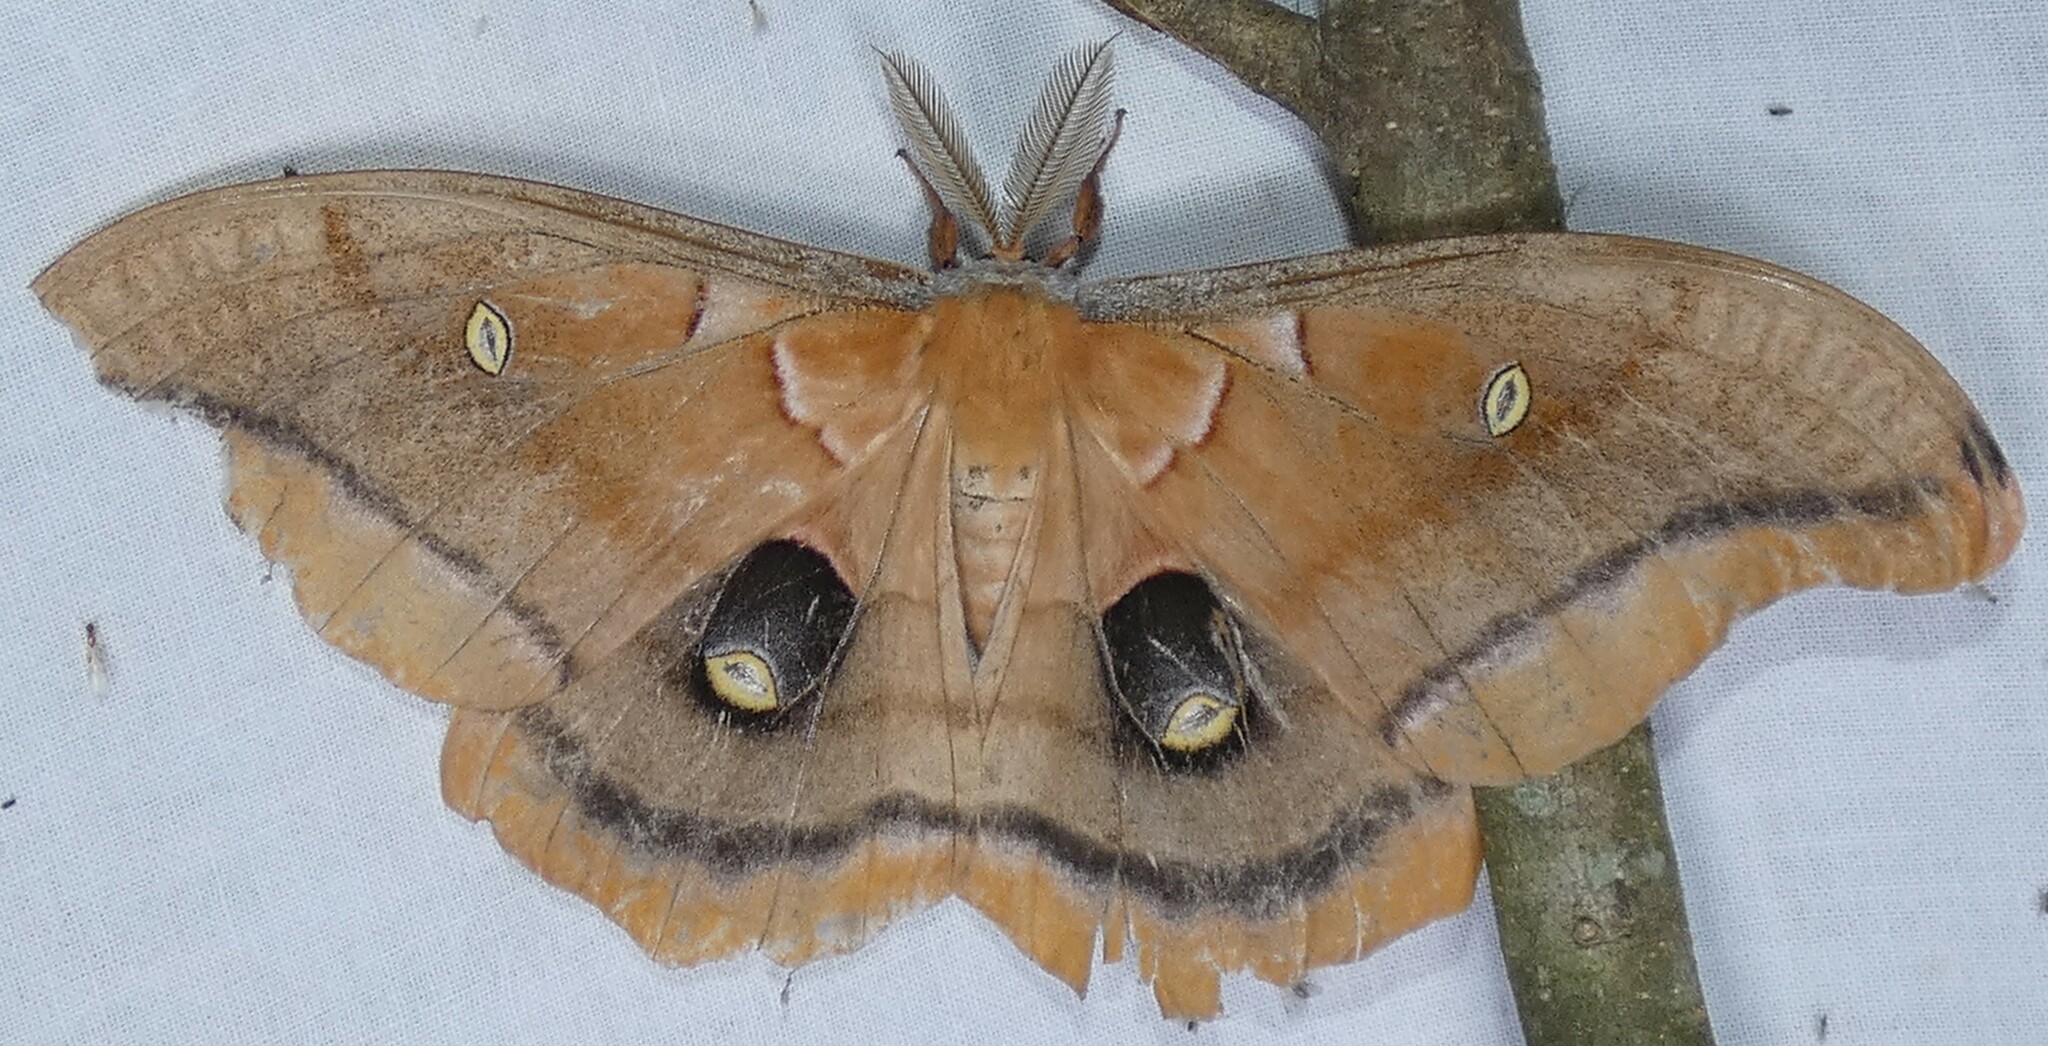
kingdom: Animalia
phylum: Arthropoda
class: Insecta
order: Lepidoptera
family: Saturniidae
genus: Antheraea
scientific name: Antheraea polyphemus
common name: Polyphemus moth
